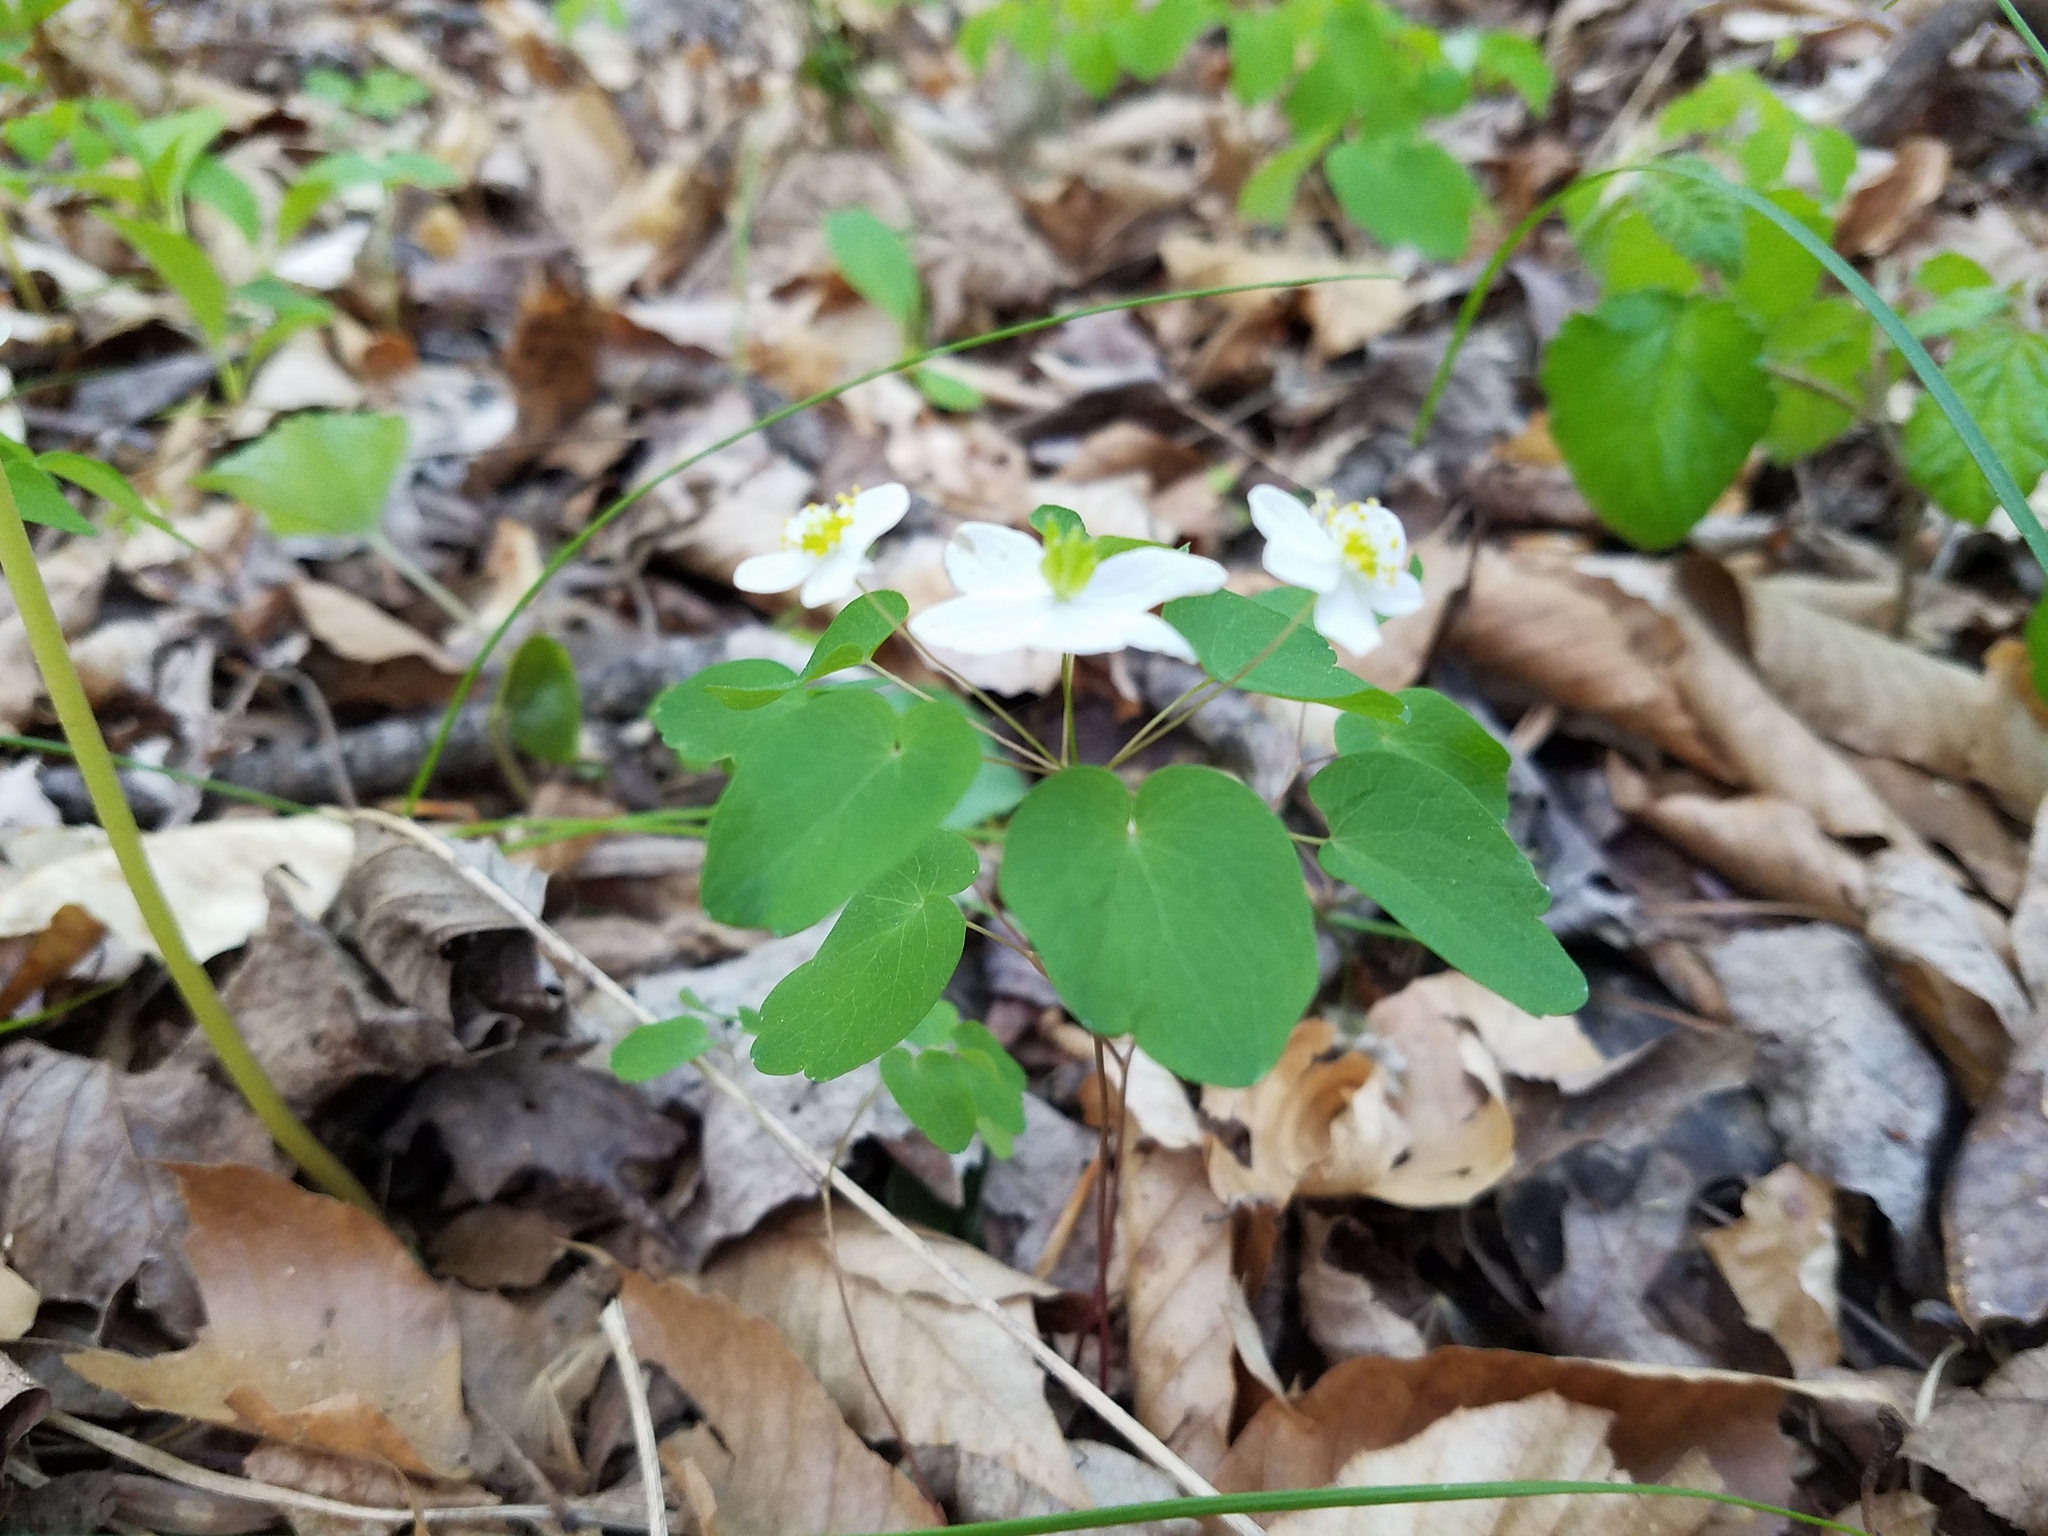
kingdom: Plantae
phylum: Tracheophyta
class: Magnoliopsida
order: Ranunculales
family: Ranunculaceae
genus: Thalictrum
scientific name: Thalictrum thalictroides
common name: Rue-anemone
